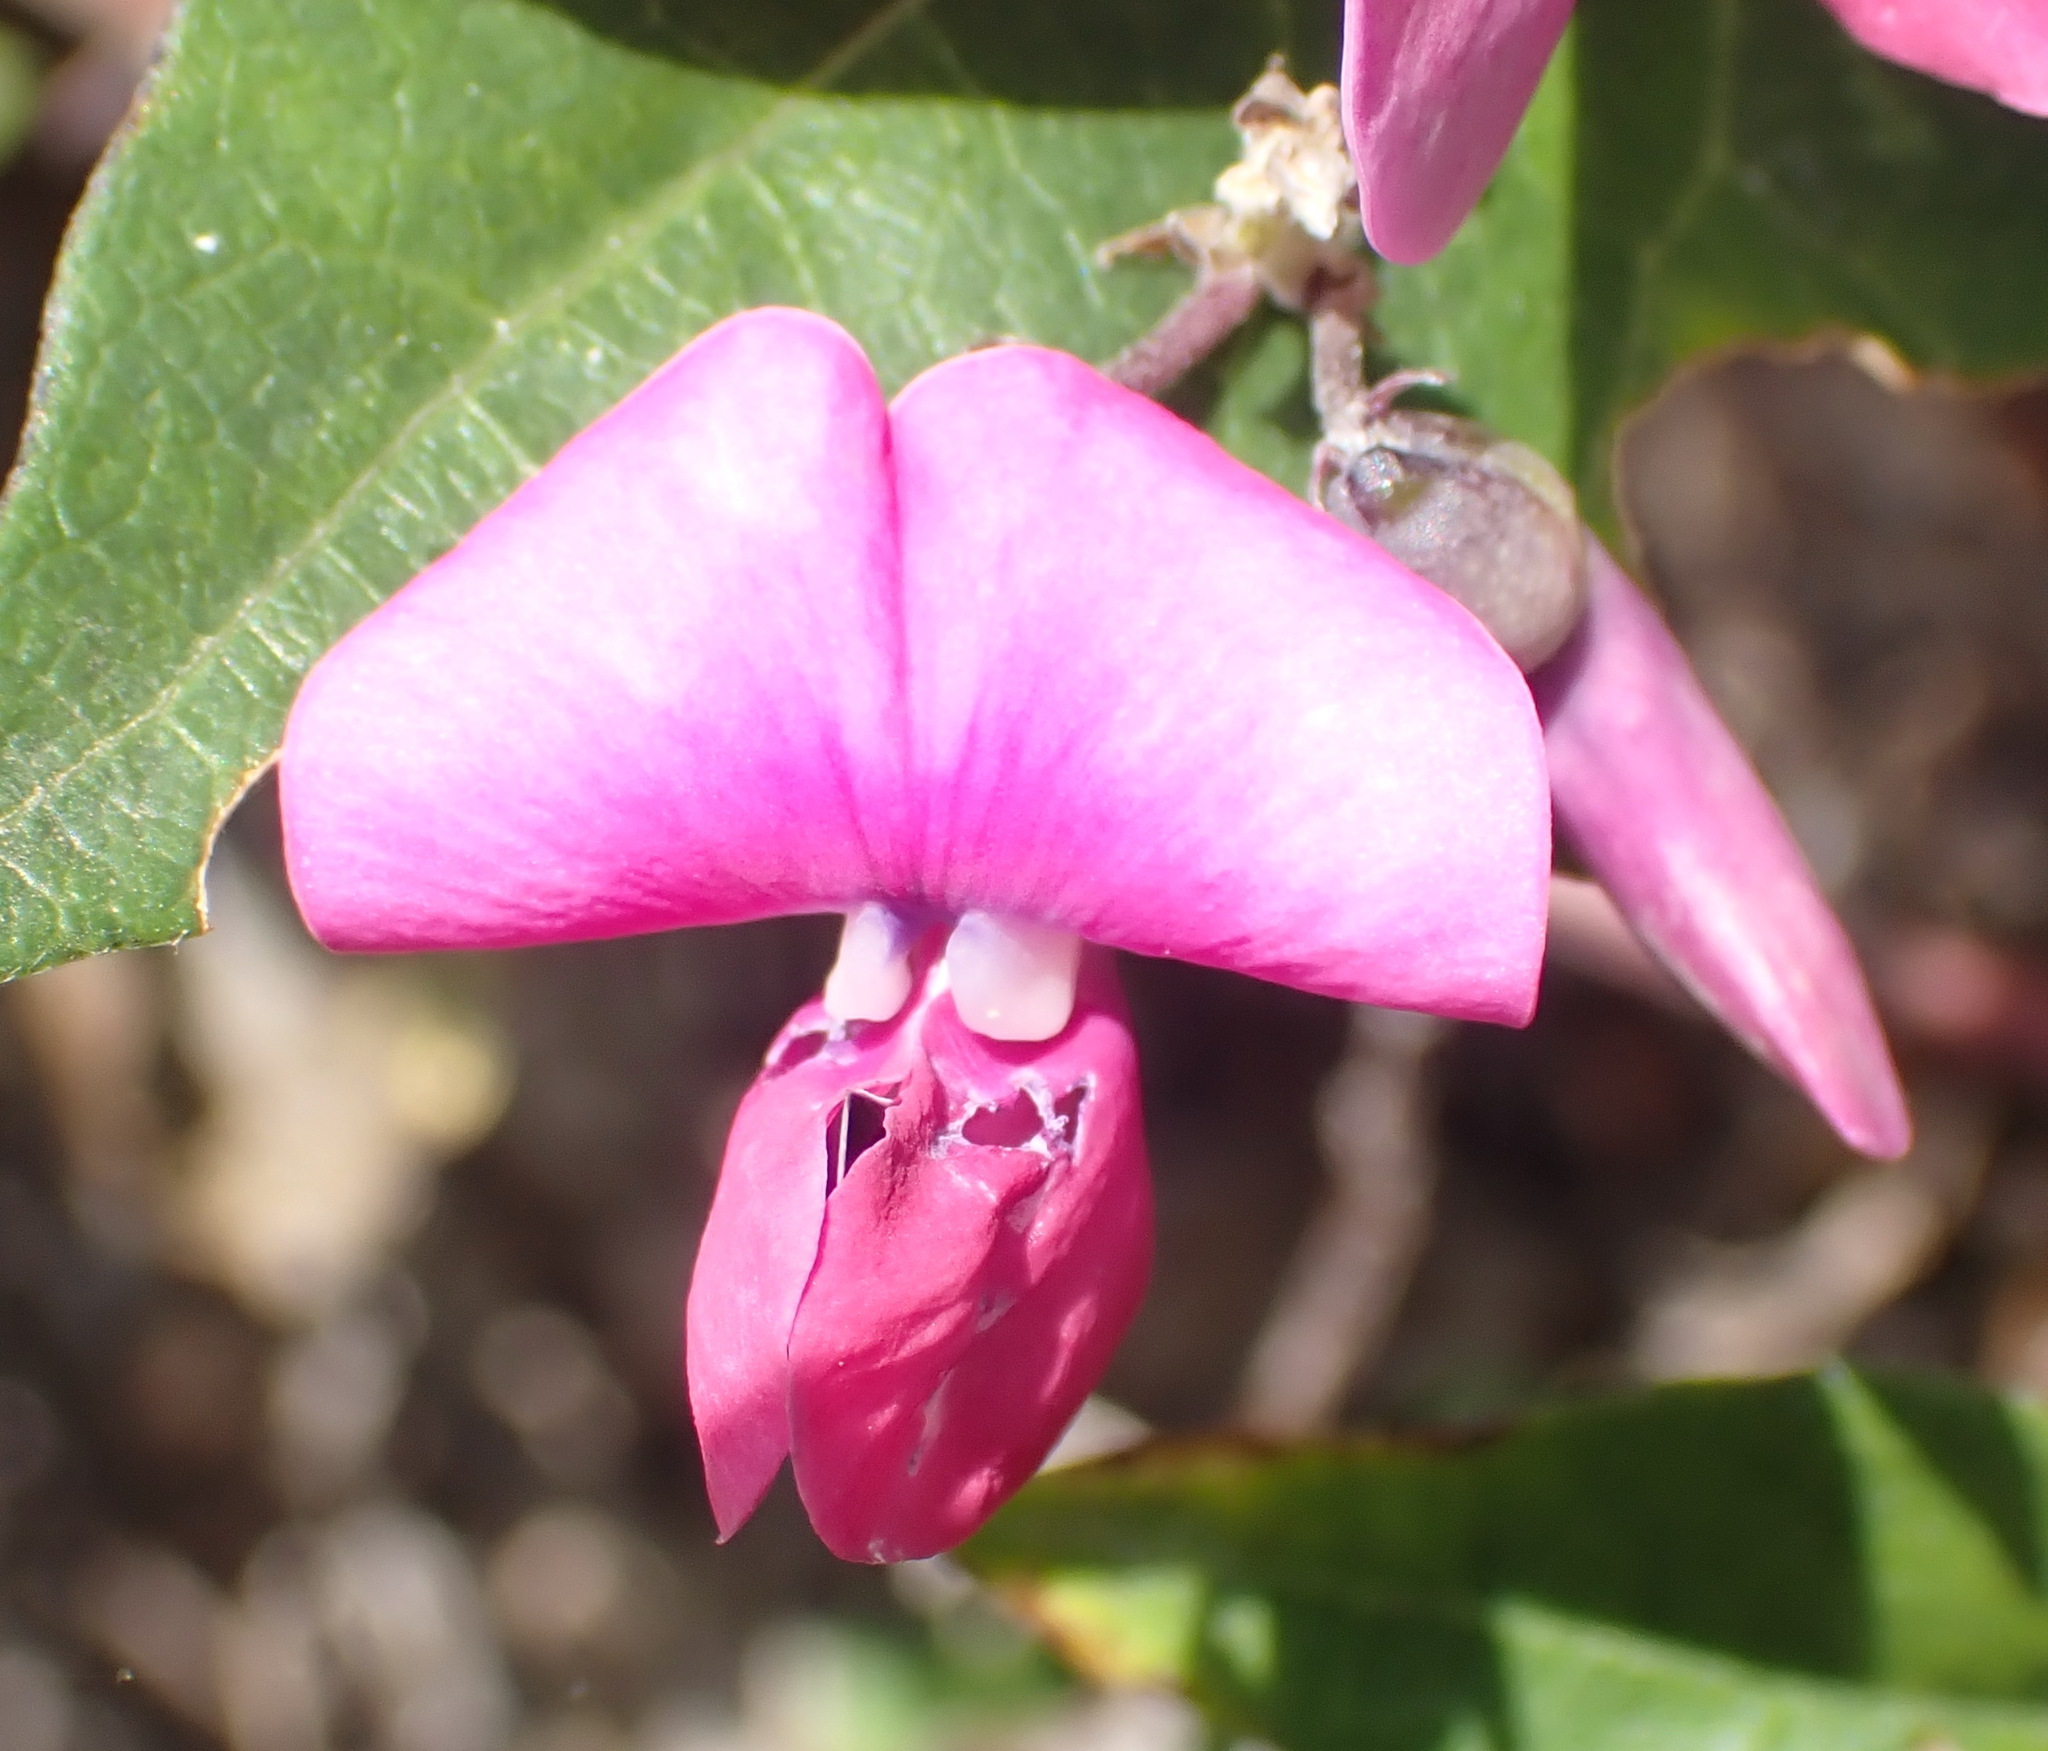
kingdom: Plantae
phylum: Tracheophyta
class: Magnoliopsida
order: Fabales
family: Fabaceae
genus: Dipogon
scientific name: Dipogon lignosus
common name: Okie bean
